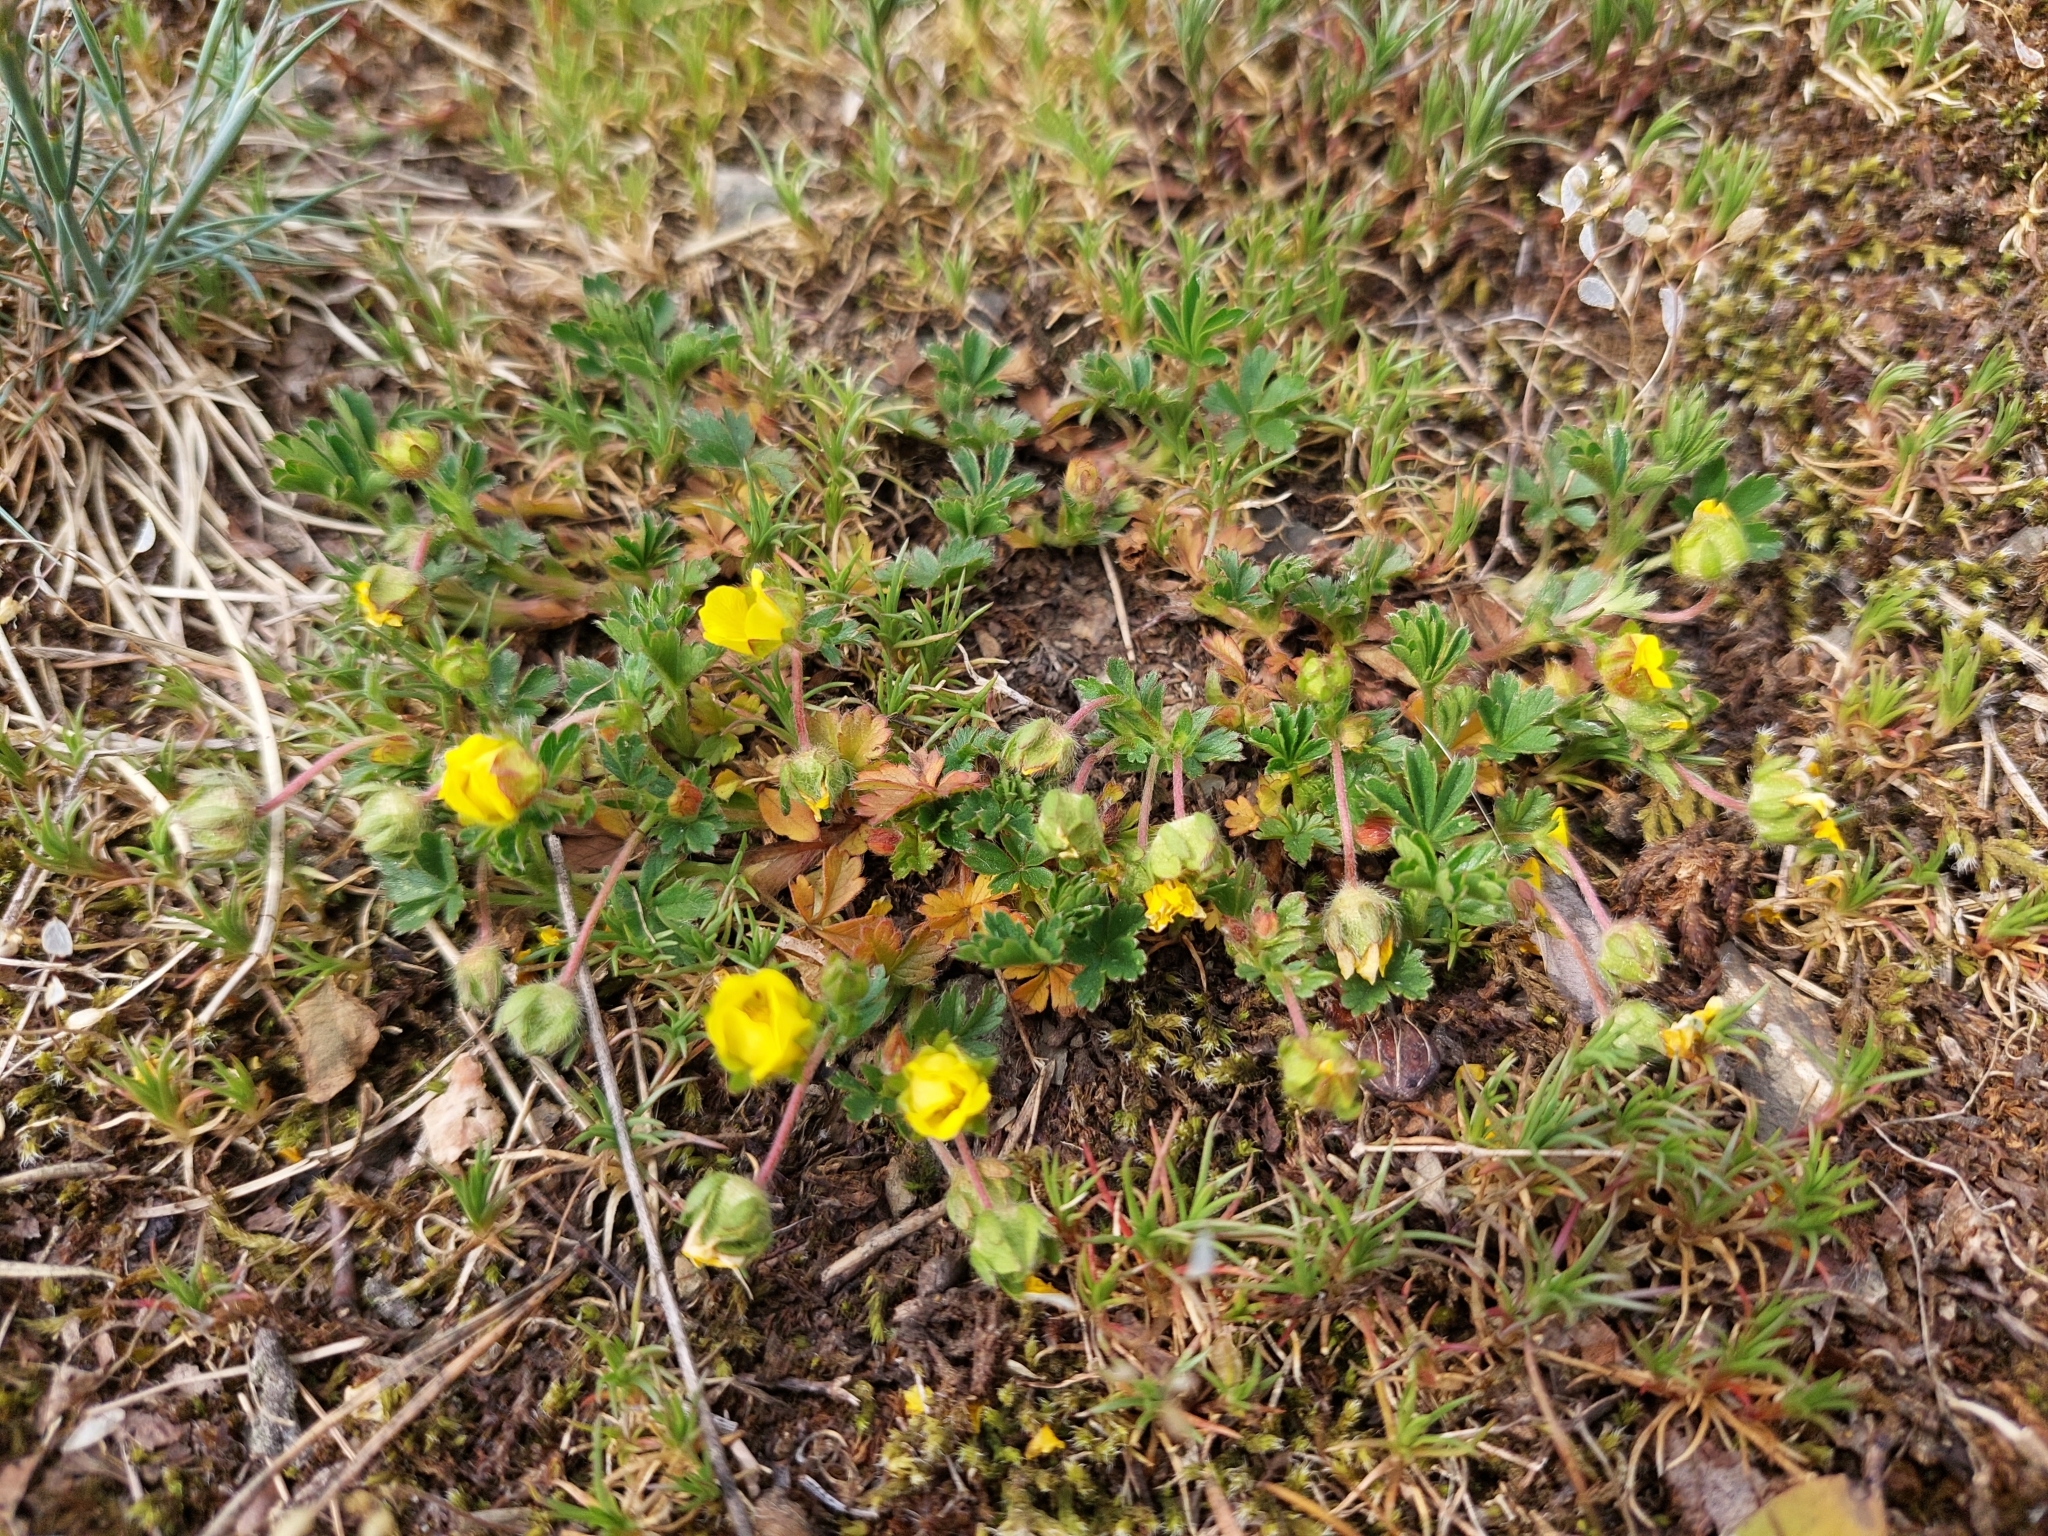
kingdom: Plantae
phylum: Tracheophyta
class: Magnoliopsida
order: Rosales
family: Rosaceae
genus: Potentilla
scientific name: Potentilla verna
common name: Spring cinquefoil
